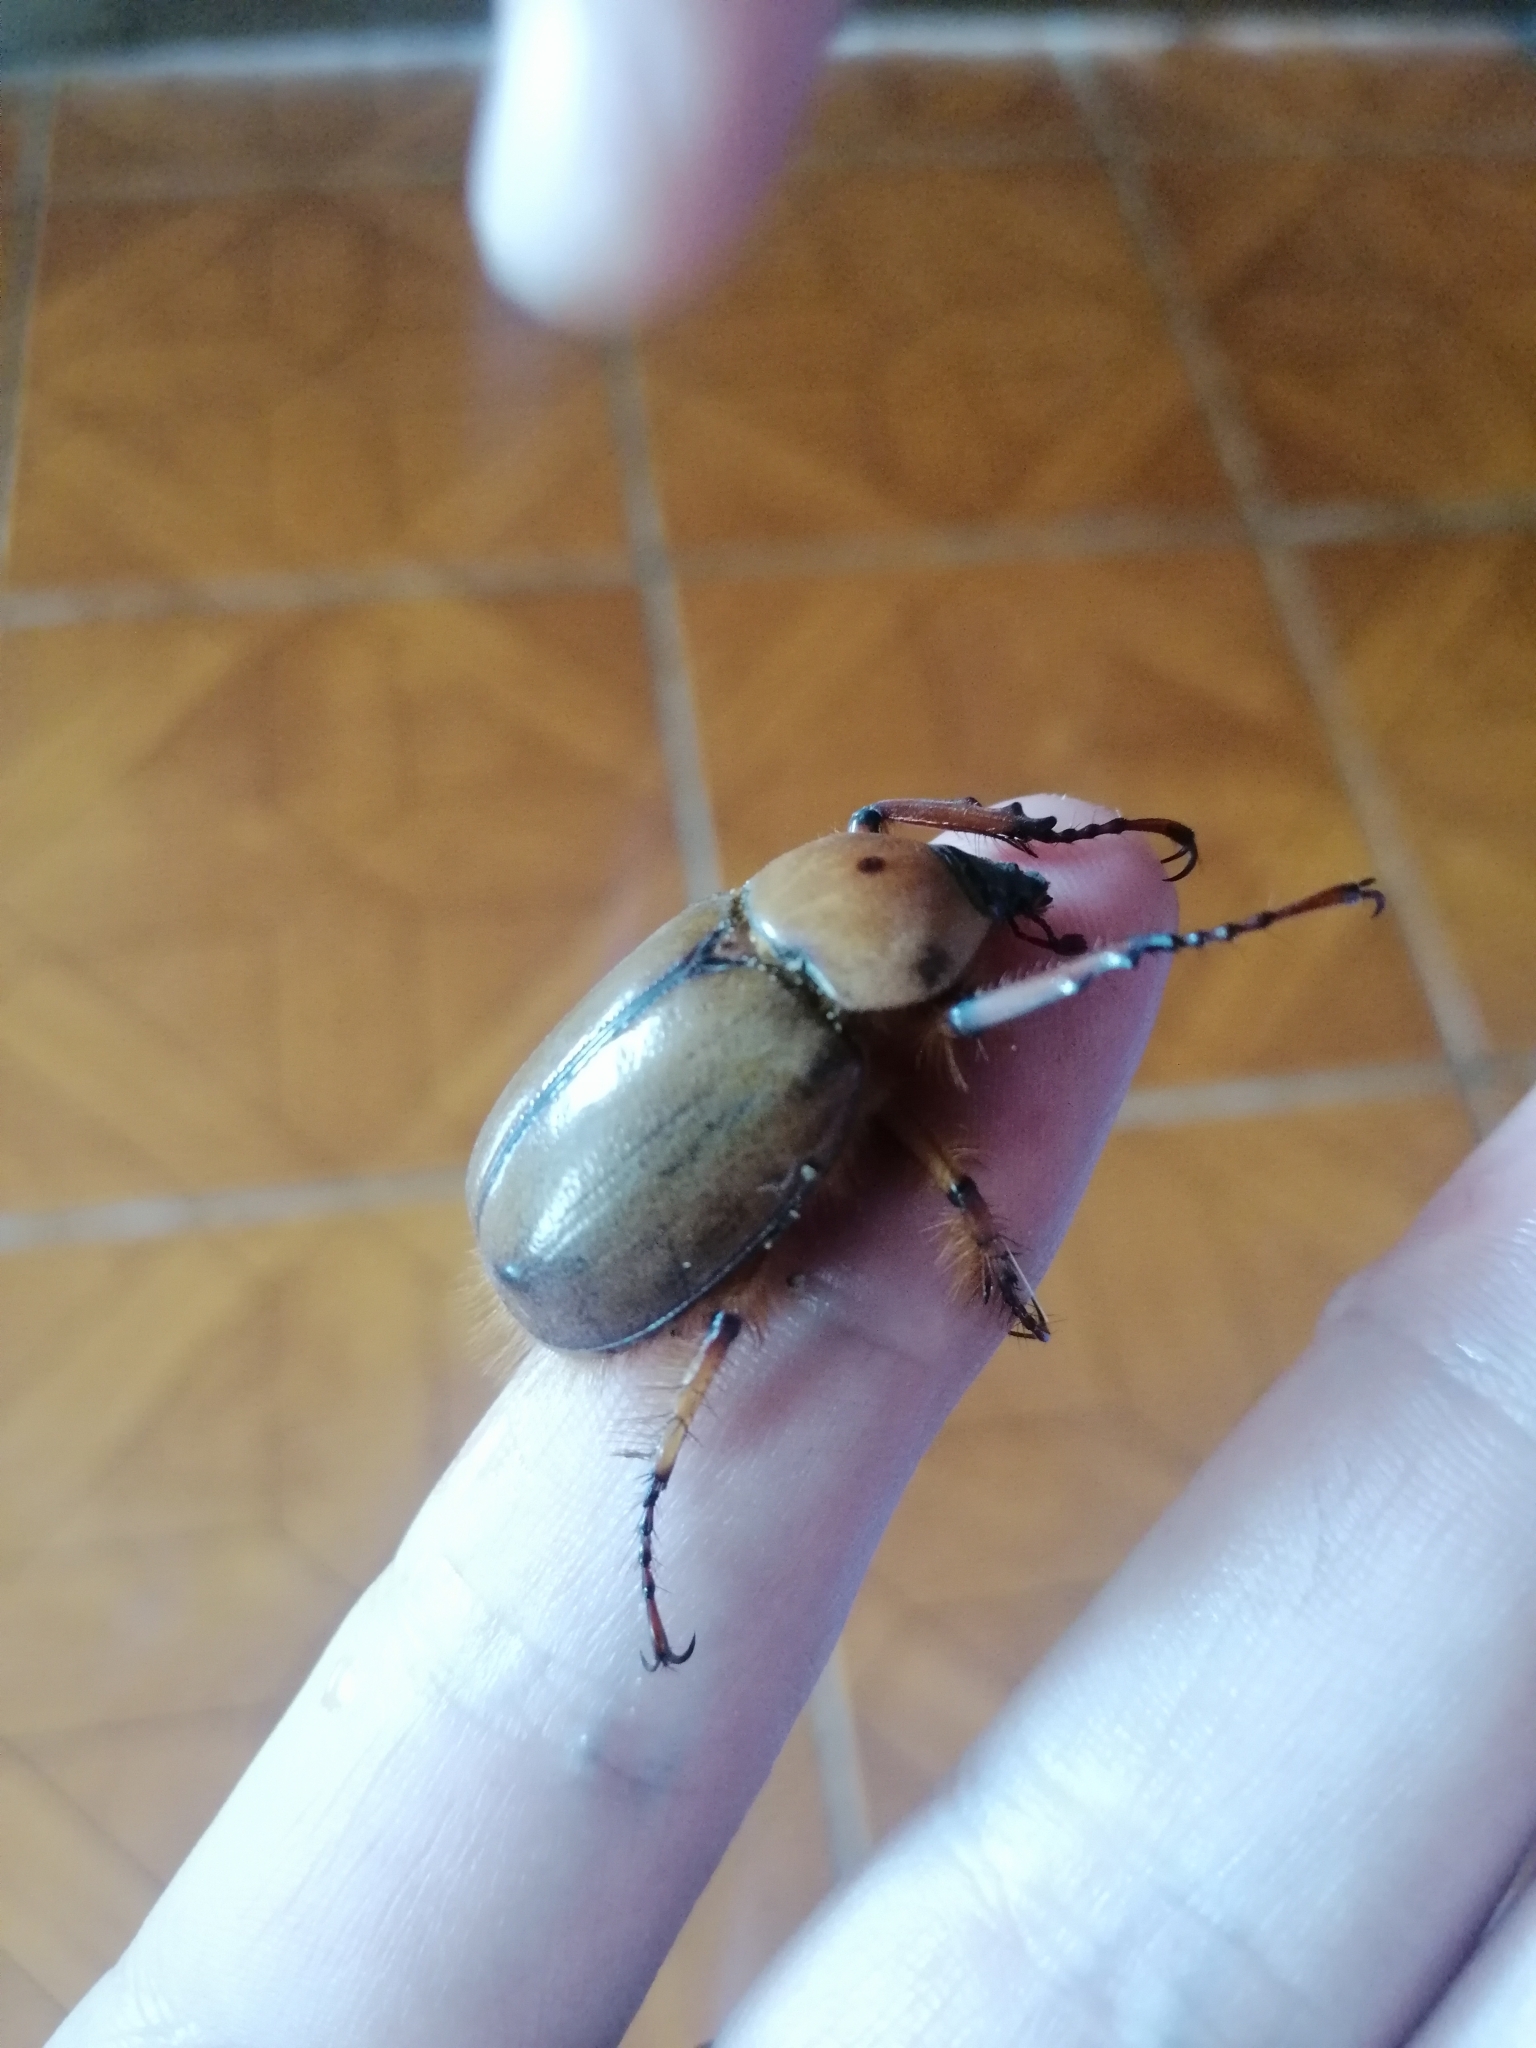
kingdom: Animalia
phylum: Arthropoda
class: Insecta
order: Coleoptera
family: Scarabaeidae
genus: Golofa
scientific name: Golofa unicolor
